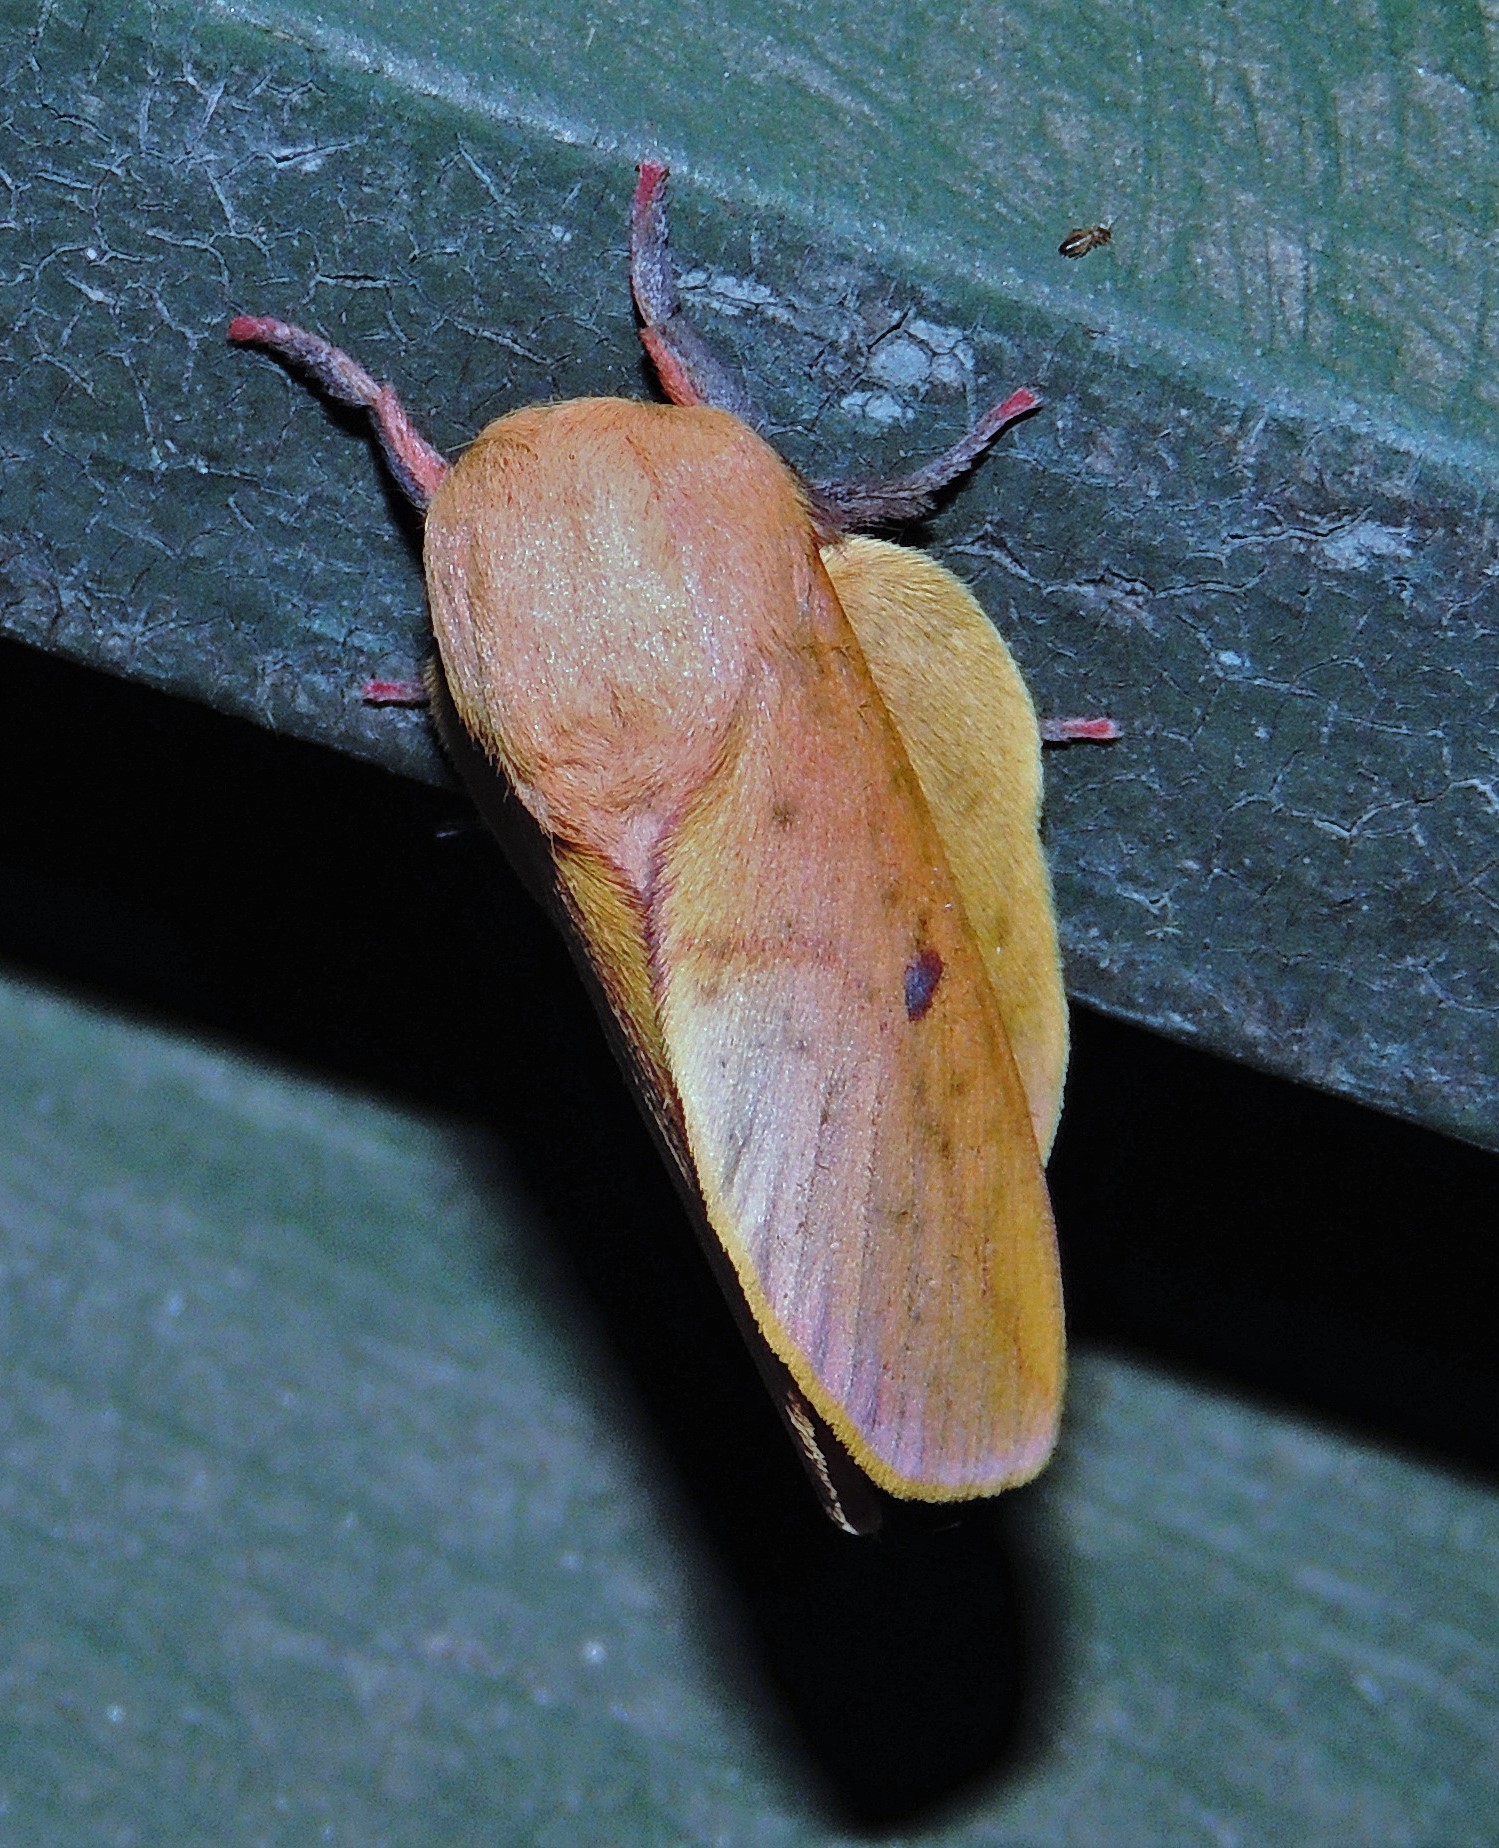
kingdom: Animalia
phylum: Arthropoda
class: Insecta
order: Lepidoptera
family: Saturniidae
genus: Psilopygida
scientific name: Psilopygida crispula
